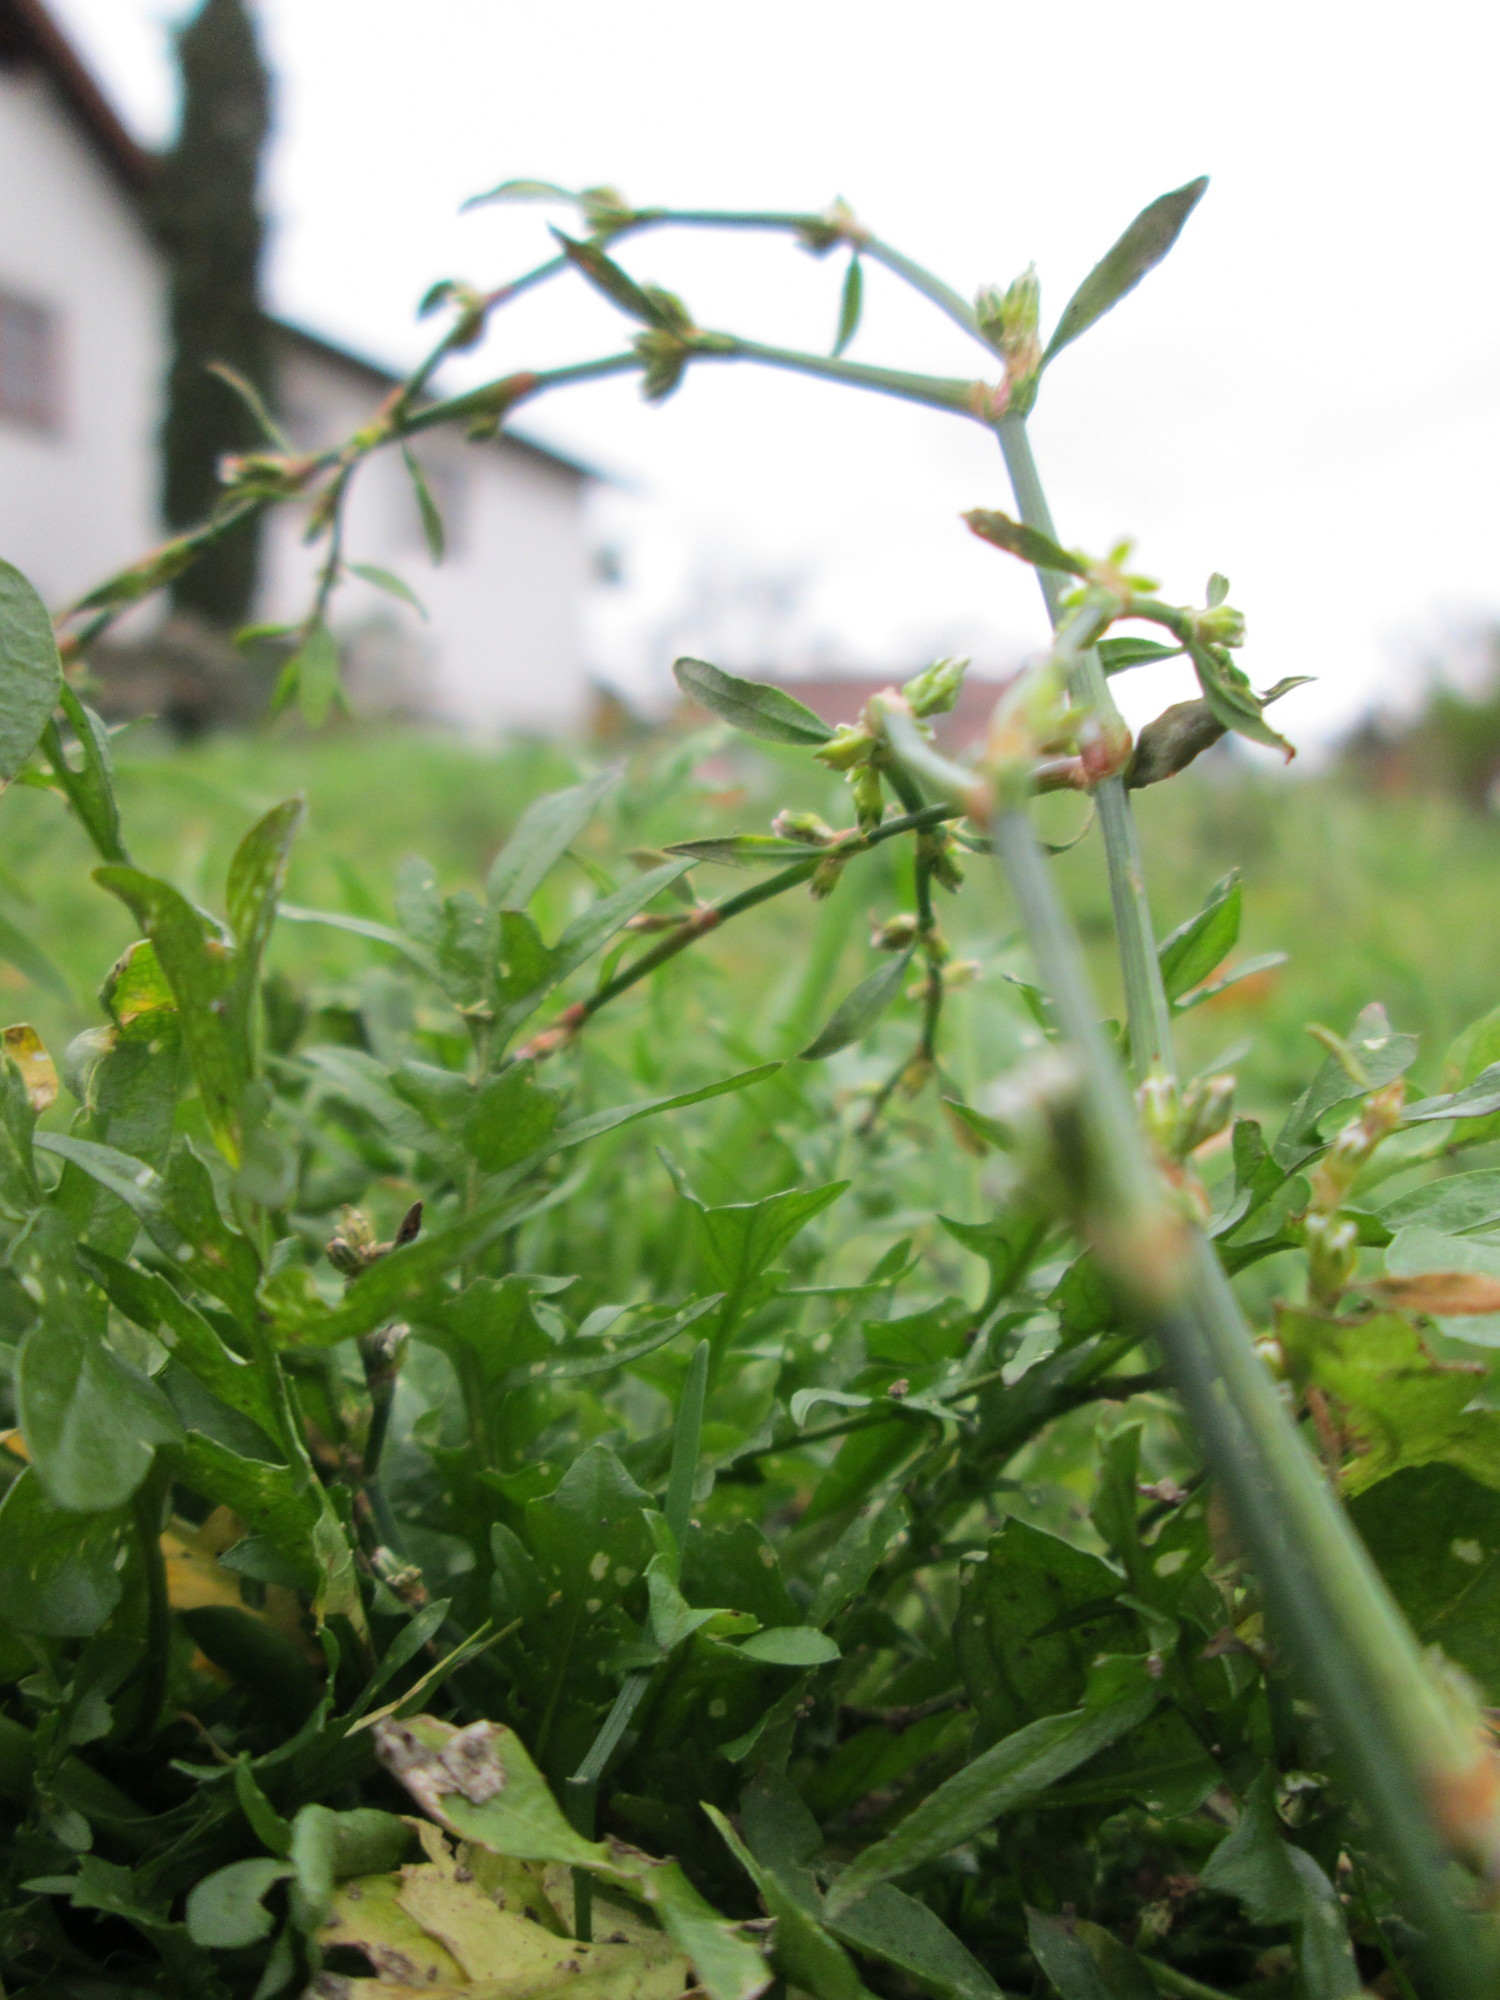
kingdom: Plantae
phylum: Tracheophyta
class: Magnoliopsida
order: Caryophyllales
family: Polygonaceae
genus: Polygonum
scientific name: Polygonum aviculare
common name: Prostrate knotweed
